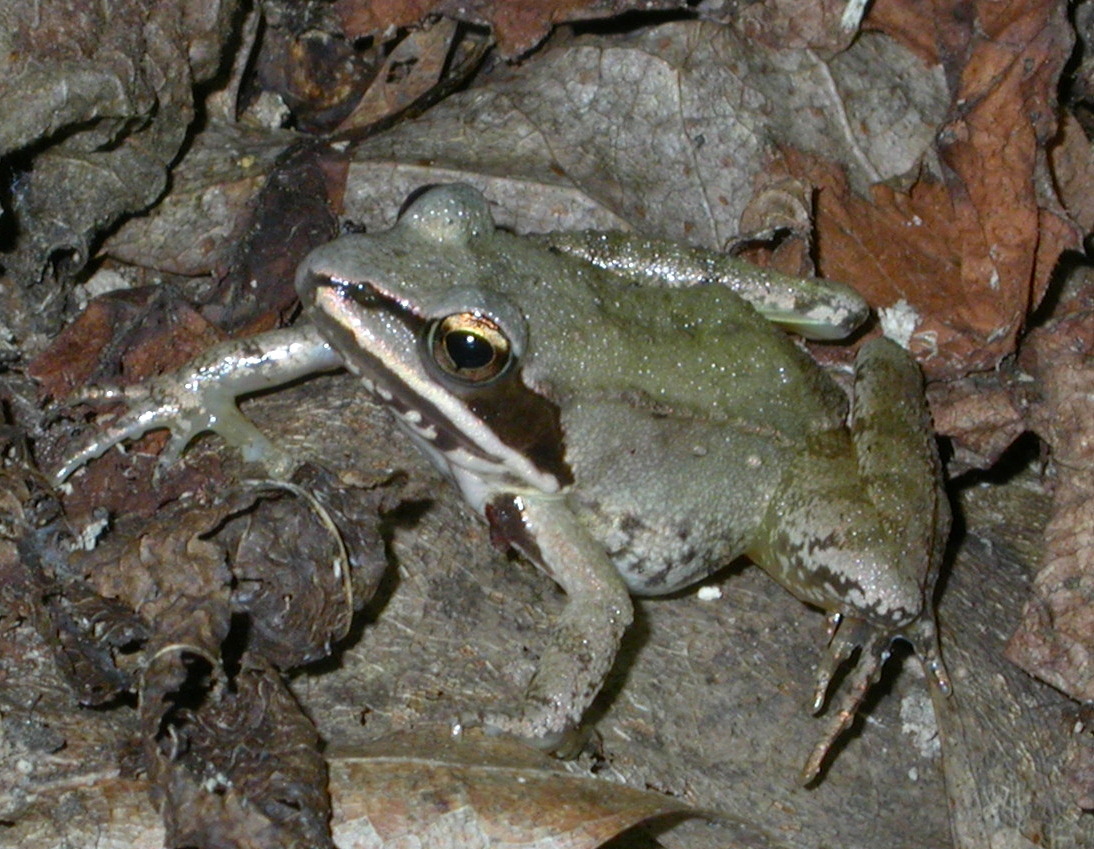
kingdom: Animalia
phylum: Chordata
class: Amphibia
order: Anura
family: Ranidae
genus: Lithobates
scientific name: Lithobates sylvaticus
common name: Wood frog
